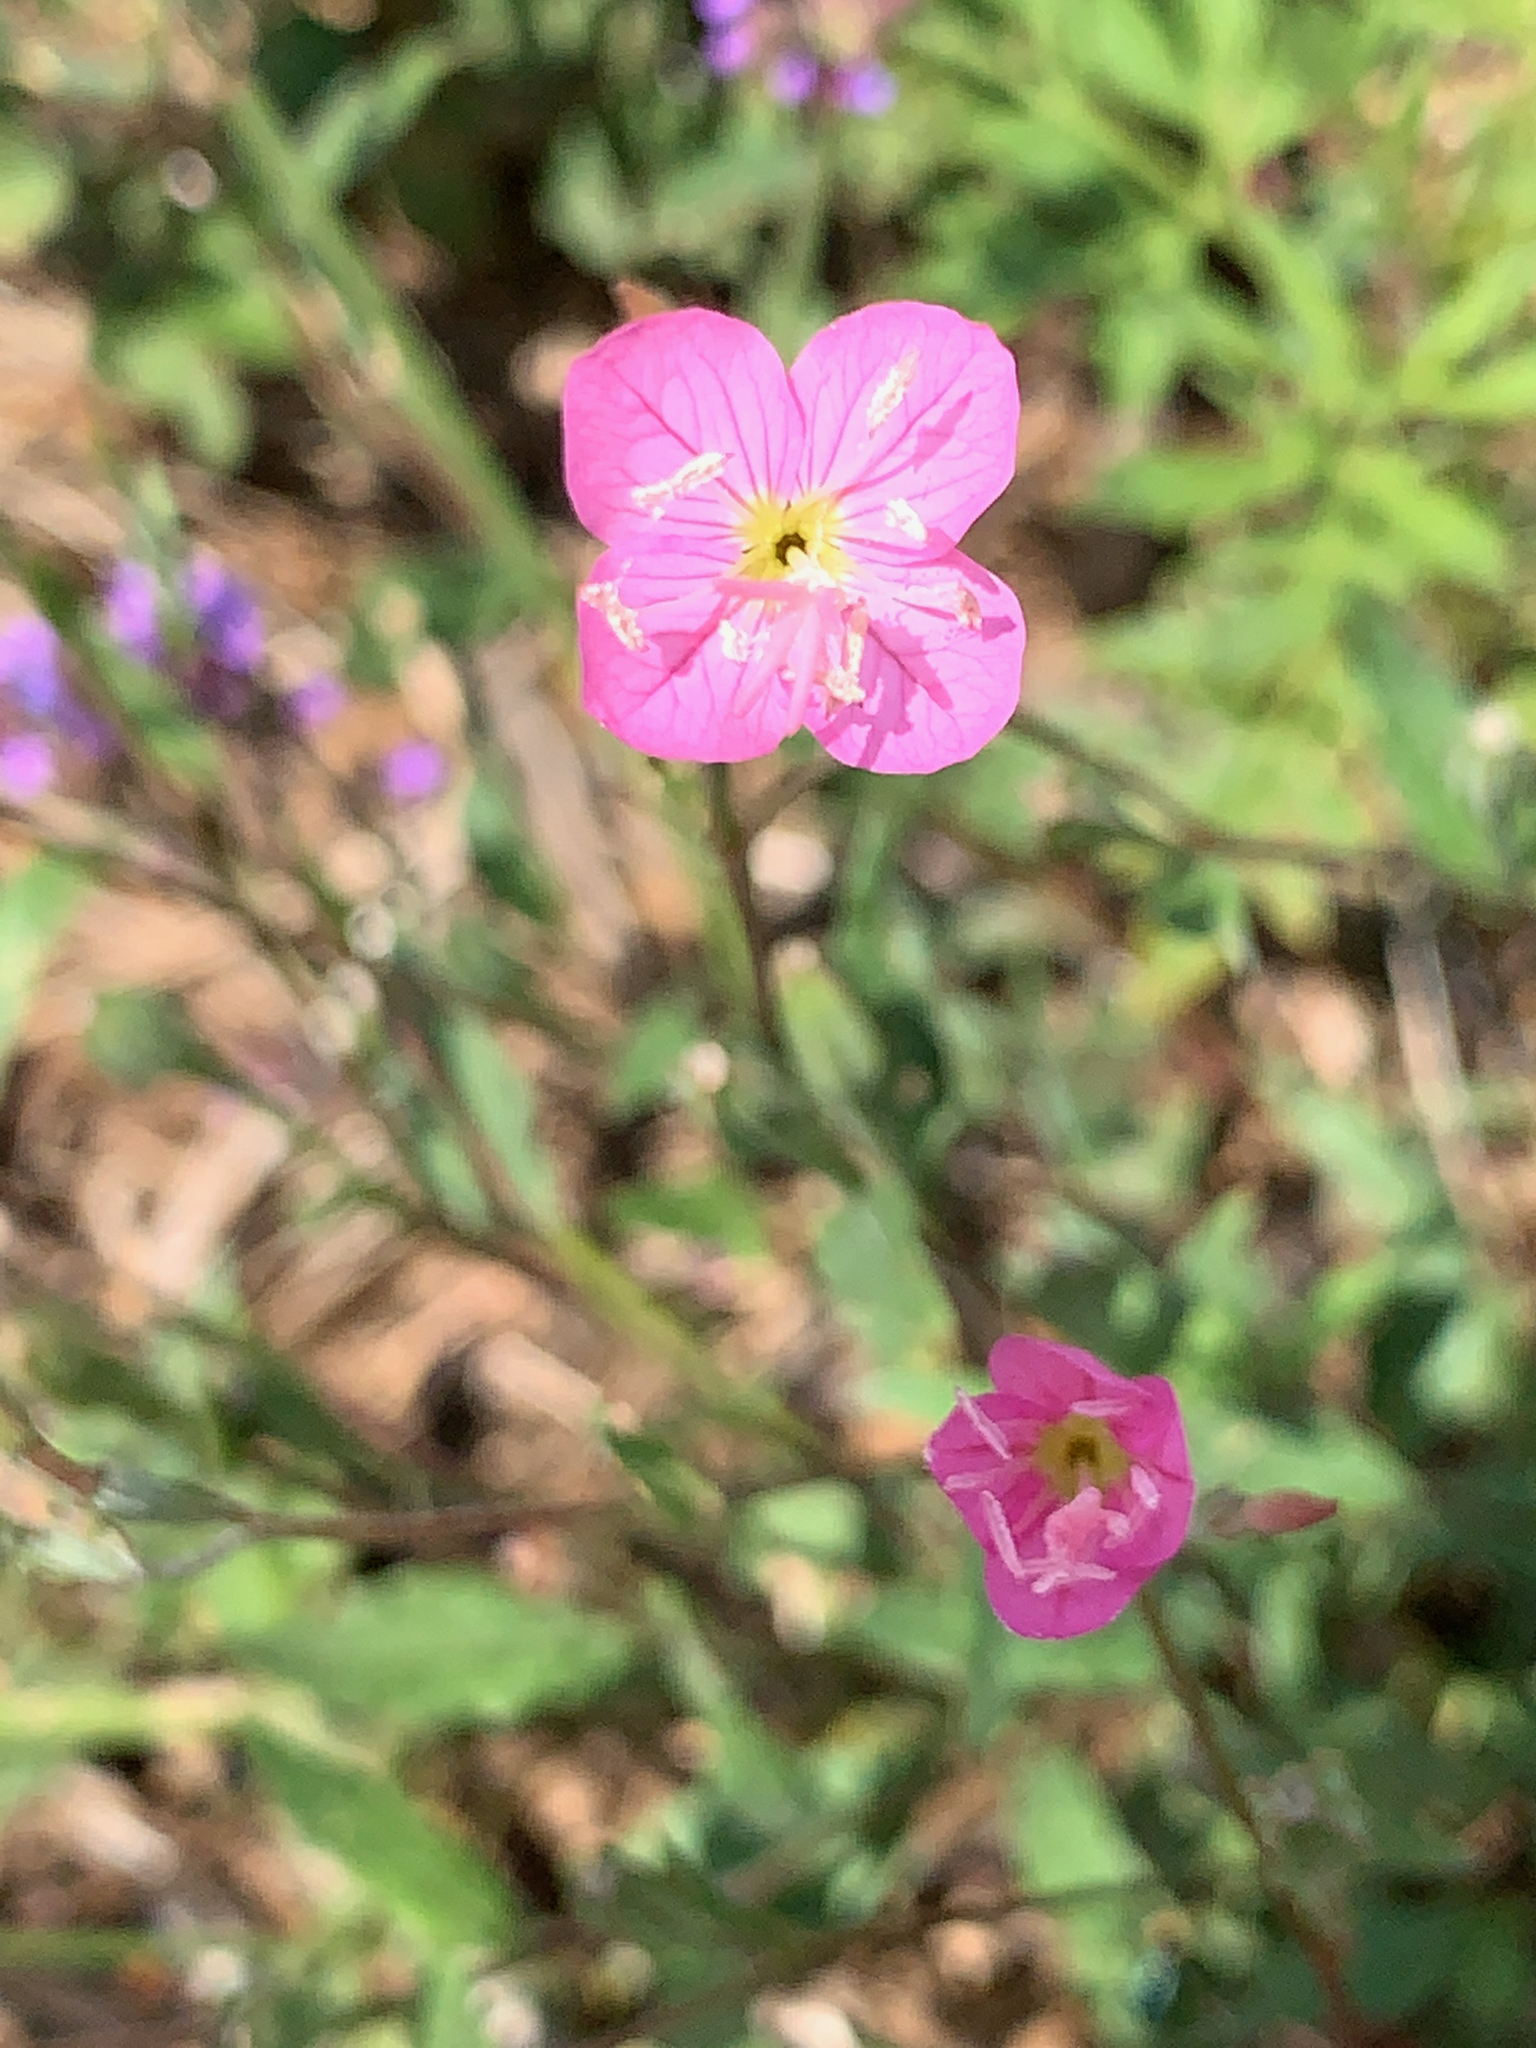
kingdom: Plantae
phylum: Tracheophyta
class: Magnoliopsida
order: Myrtales
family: Onagraceae
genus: Oenothera
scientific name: Oenothera rosea
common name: Rosy evening-primrose
